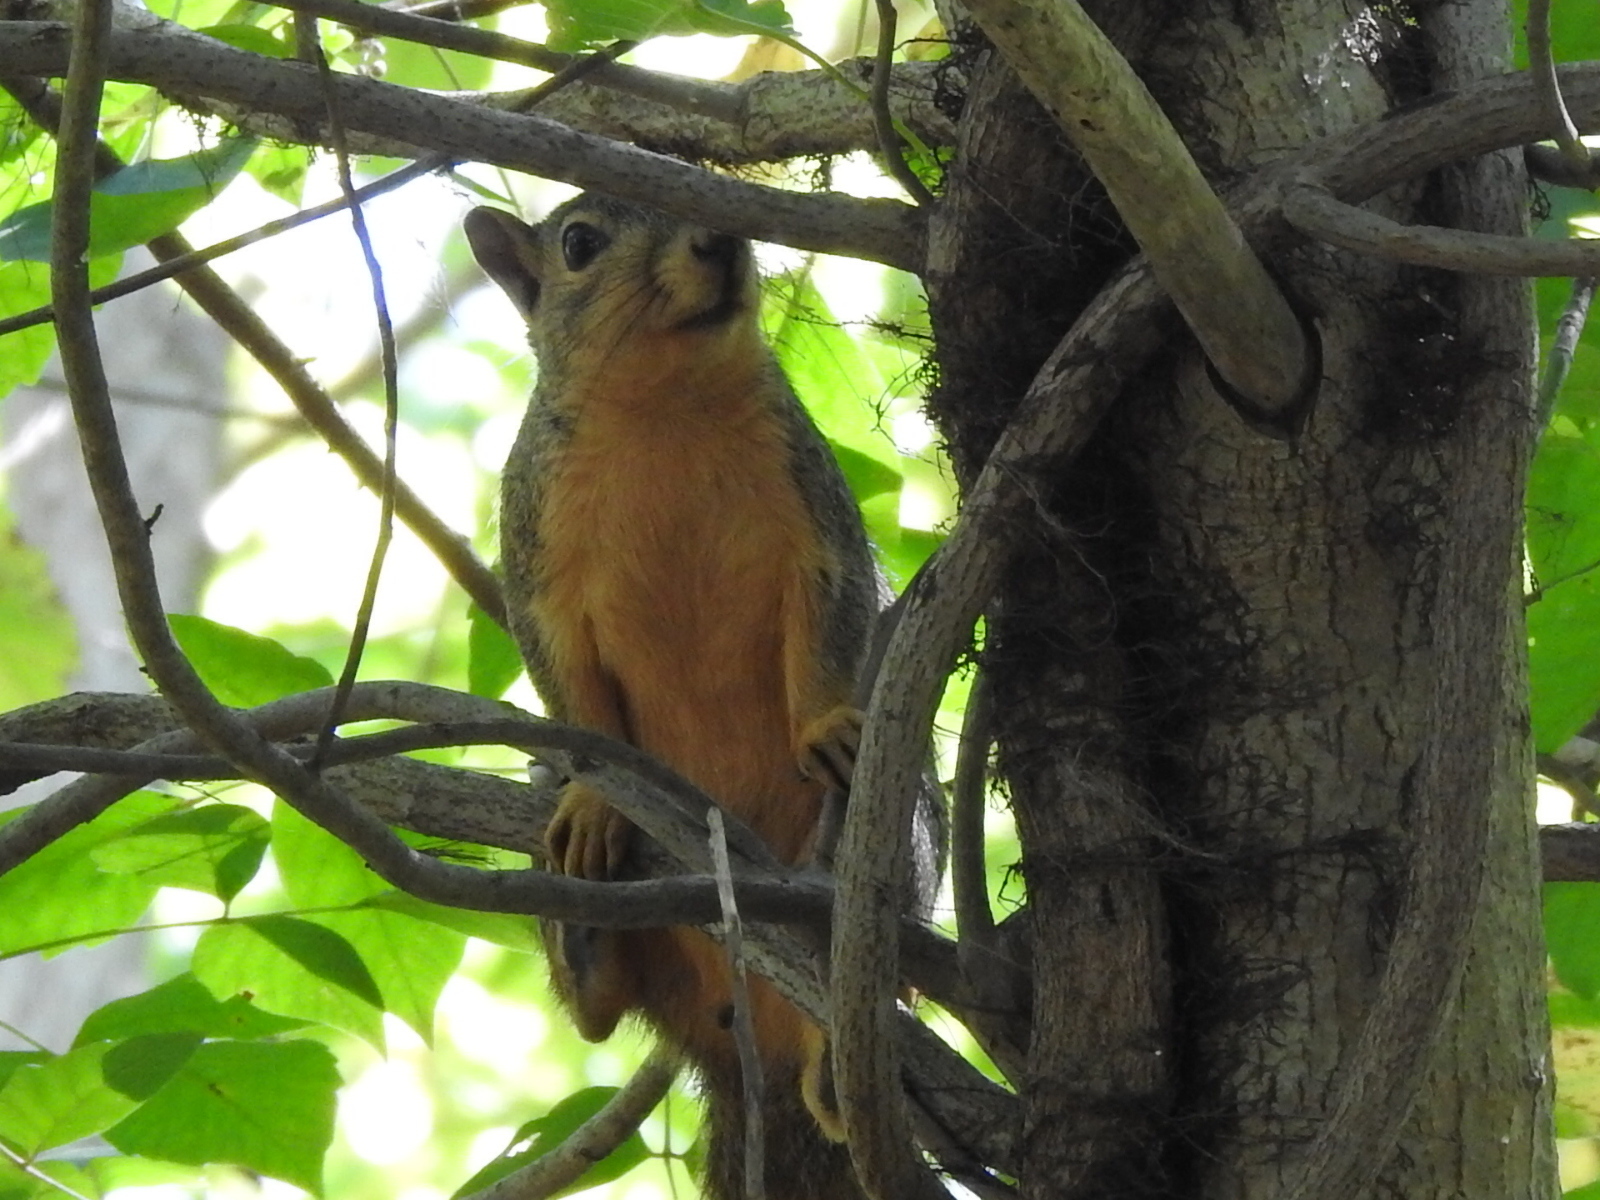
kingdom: Animalia
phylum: Chordata
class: Mammalia
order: Rodentia
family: Sciuridae
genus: Sciurus
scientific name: Sciurus niger
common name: Fox squirrel
